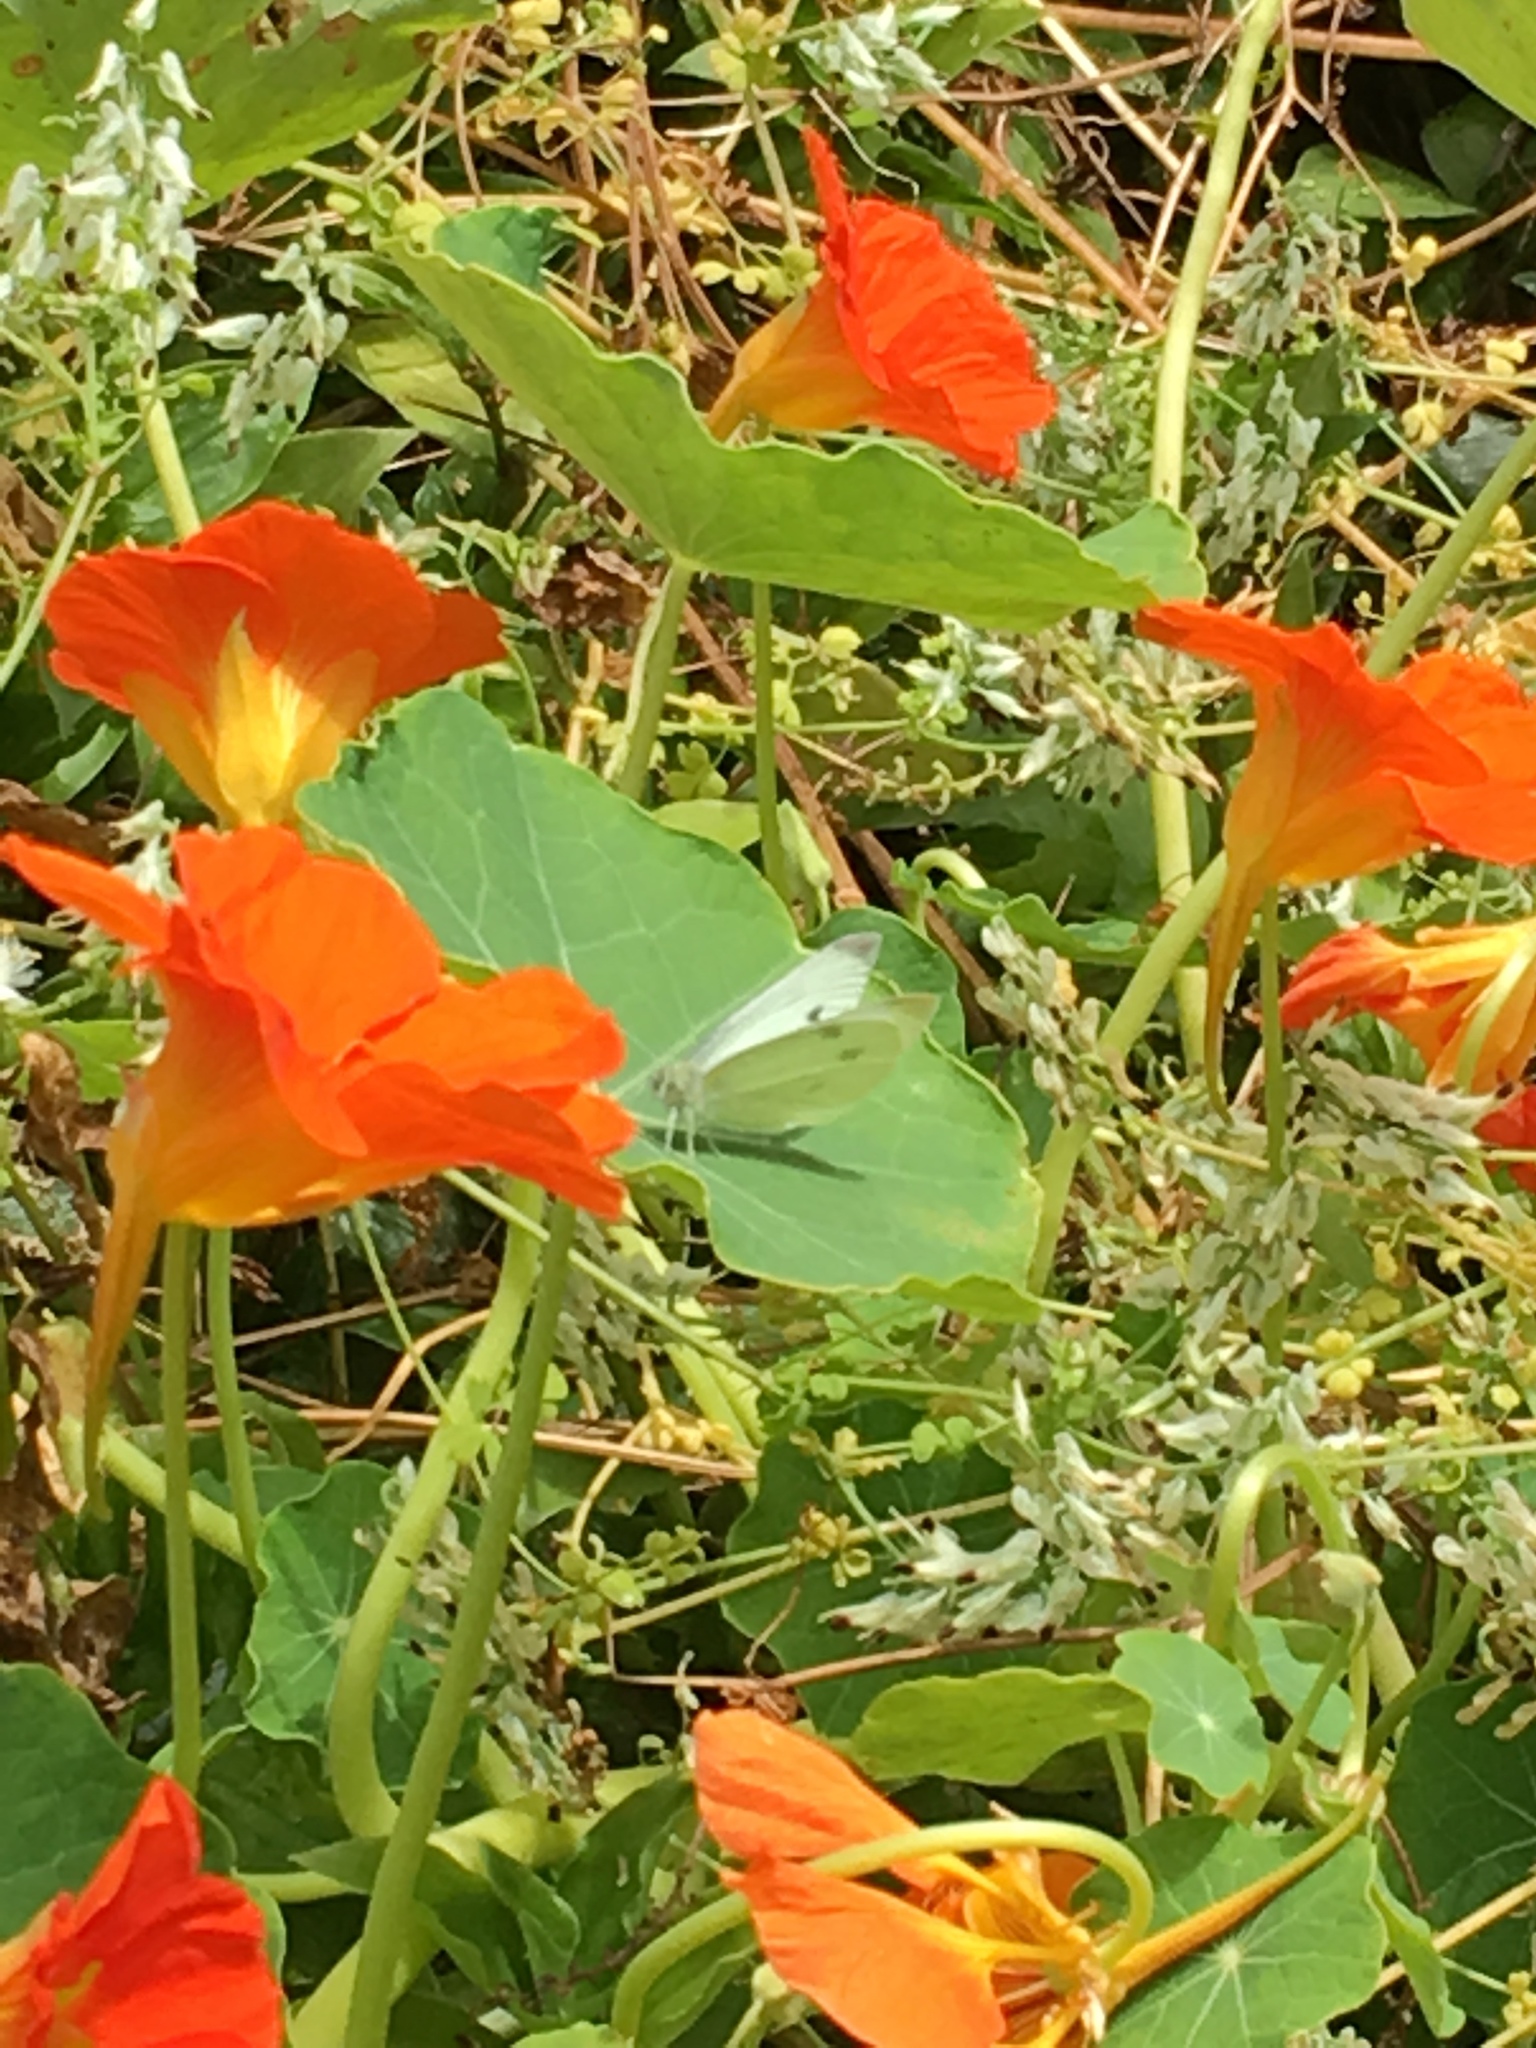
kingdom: Animalia
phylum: Arthropoda
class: Insecta
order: Lepidoptera
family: Pieridae
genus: Pieris
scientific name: Pieris rapae
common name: Small white
